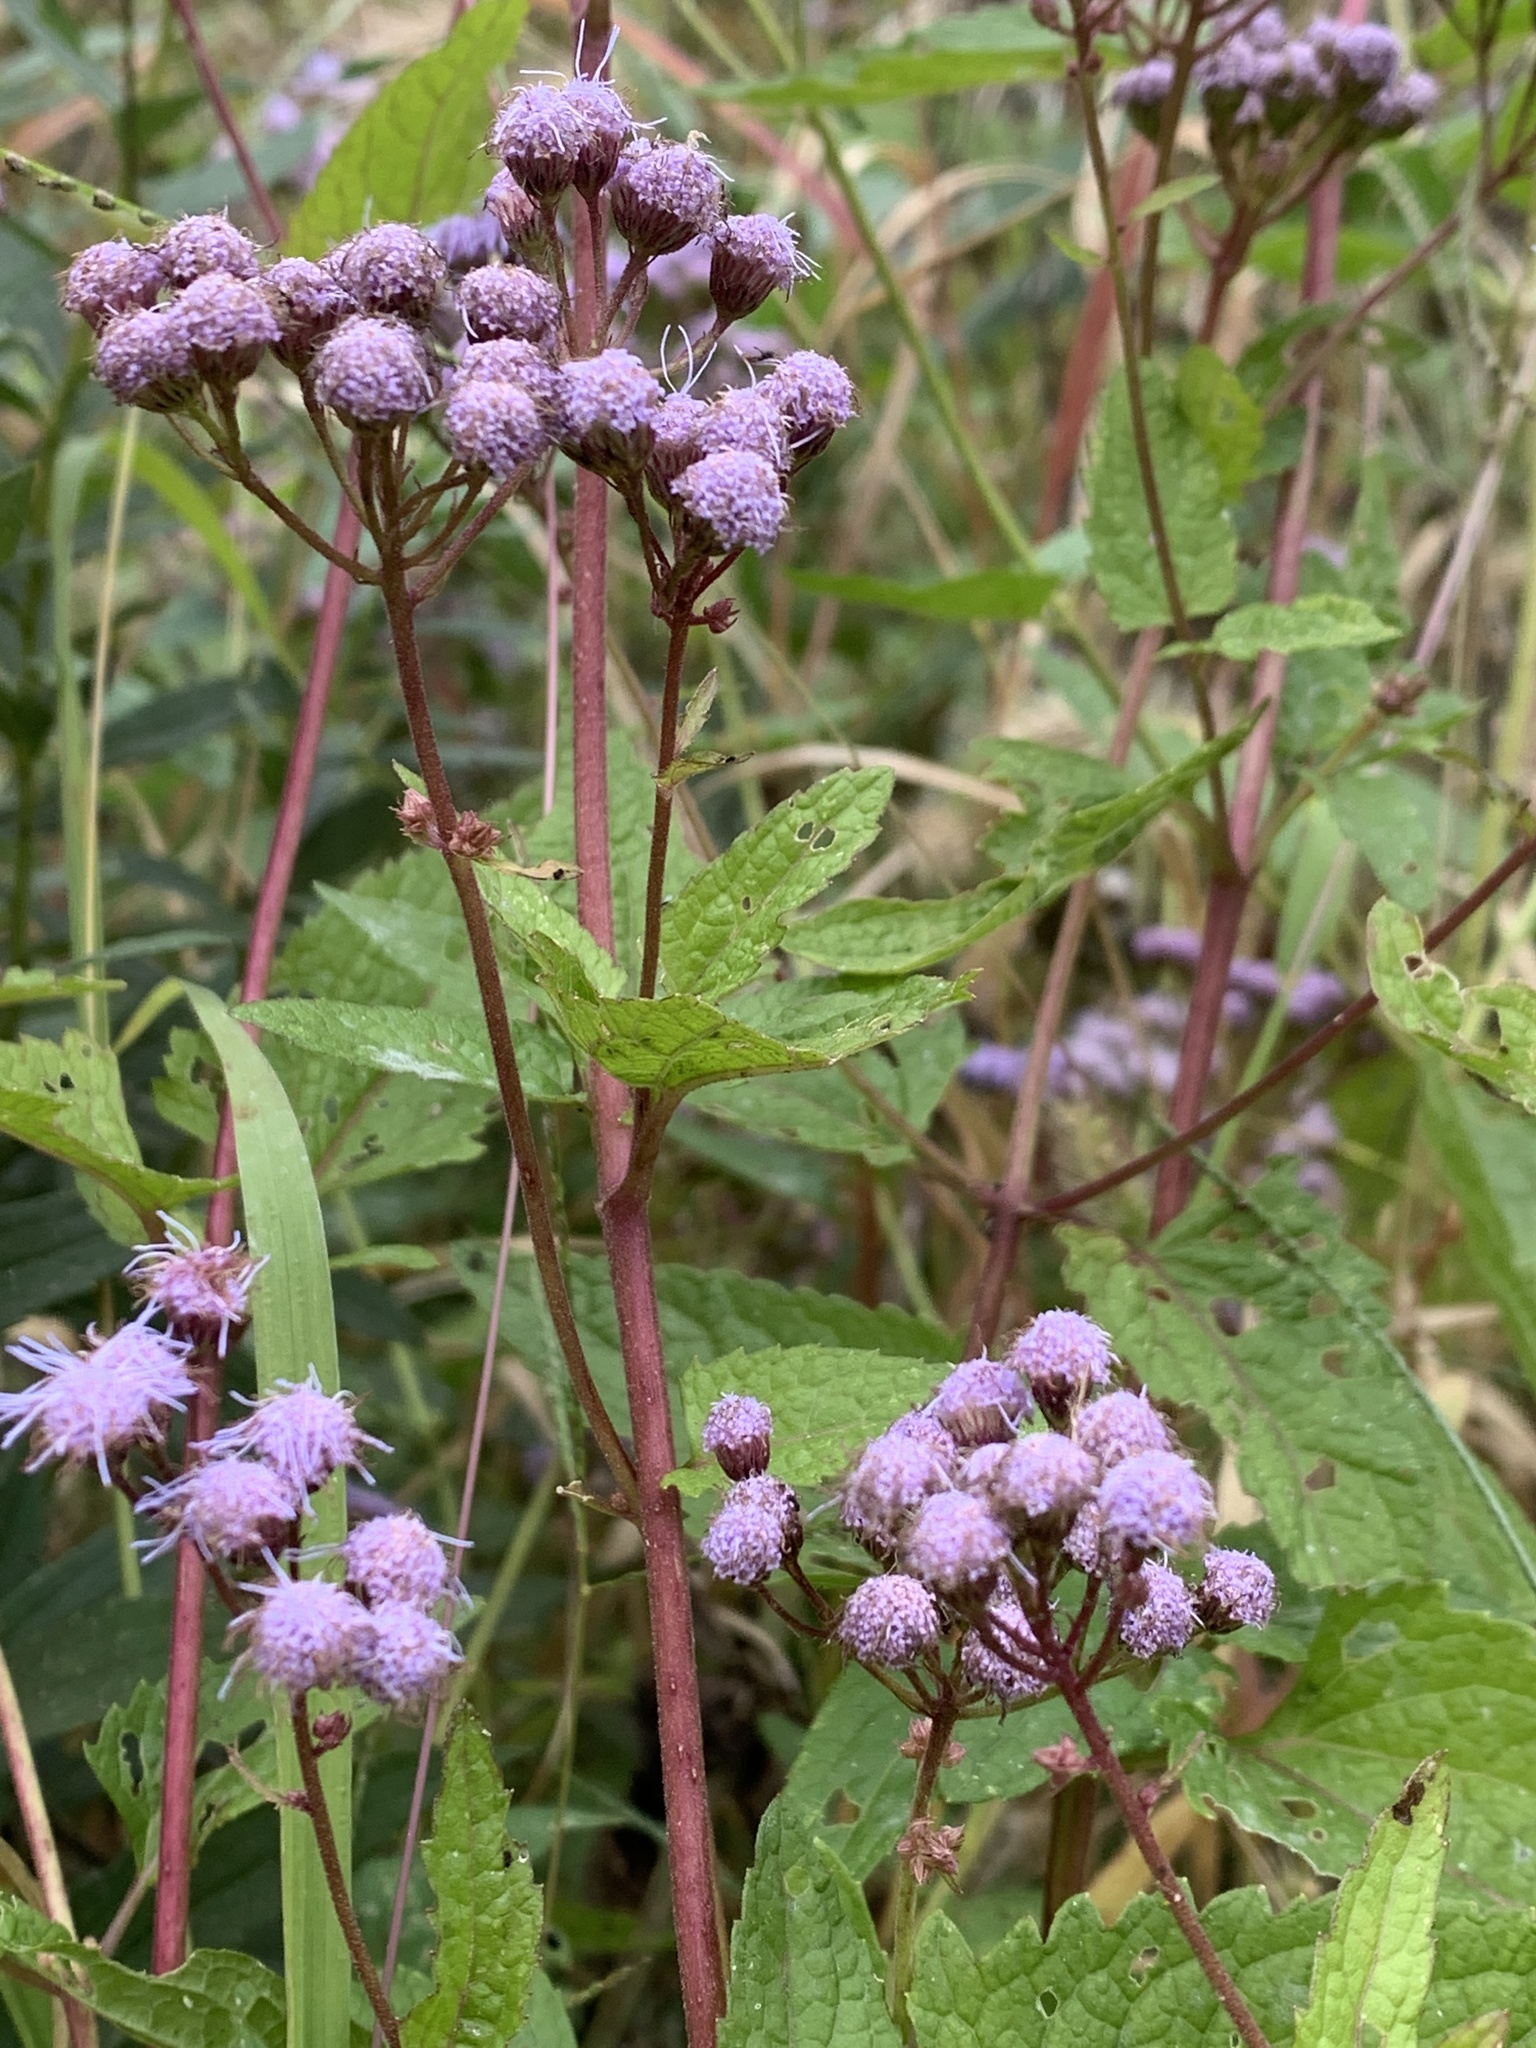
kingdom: Plantae
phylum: Tracheophyta
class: Magnoliopsida
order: Asterales
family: Asteraceae
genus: Conoclinium
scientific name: Conoclinium coelestinum
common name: Blue mistflower
